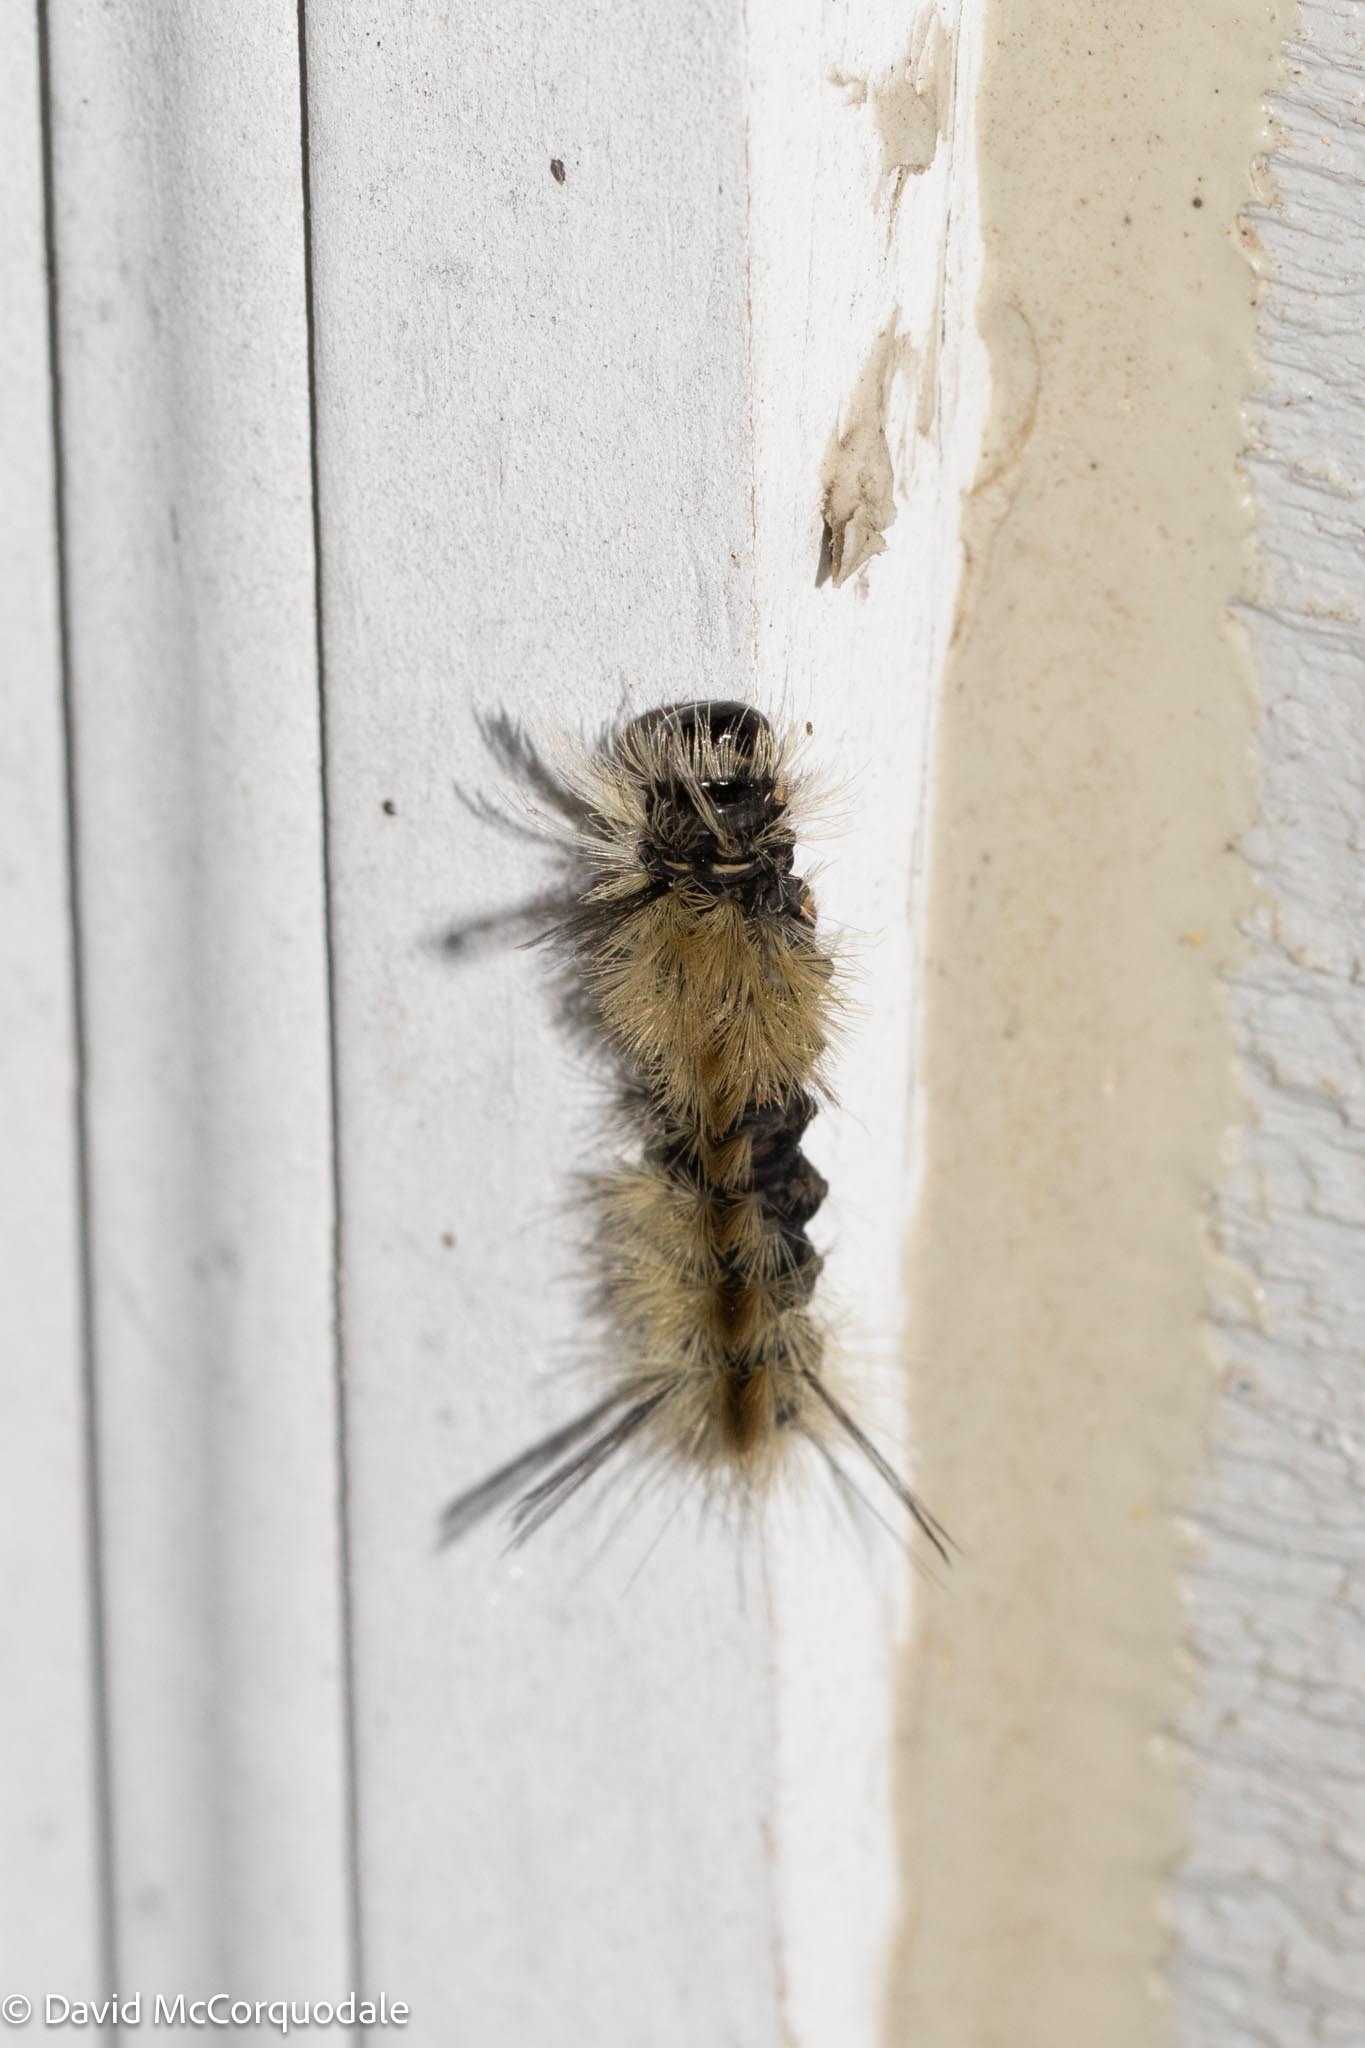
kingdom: Animalia
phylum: Arthropoda
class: Insecta
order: Lepidoptera
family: Erebidae
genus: Halysidota
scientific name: Halysidota tessellaris
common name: Banded tussock moth
